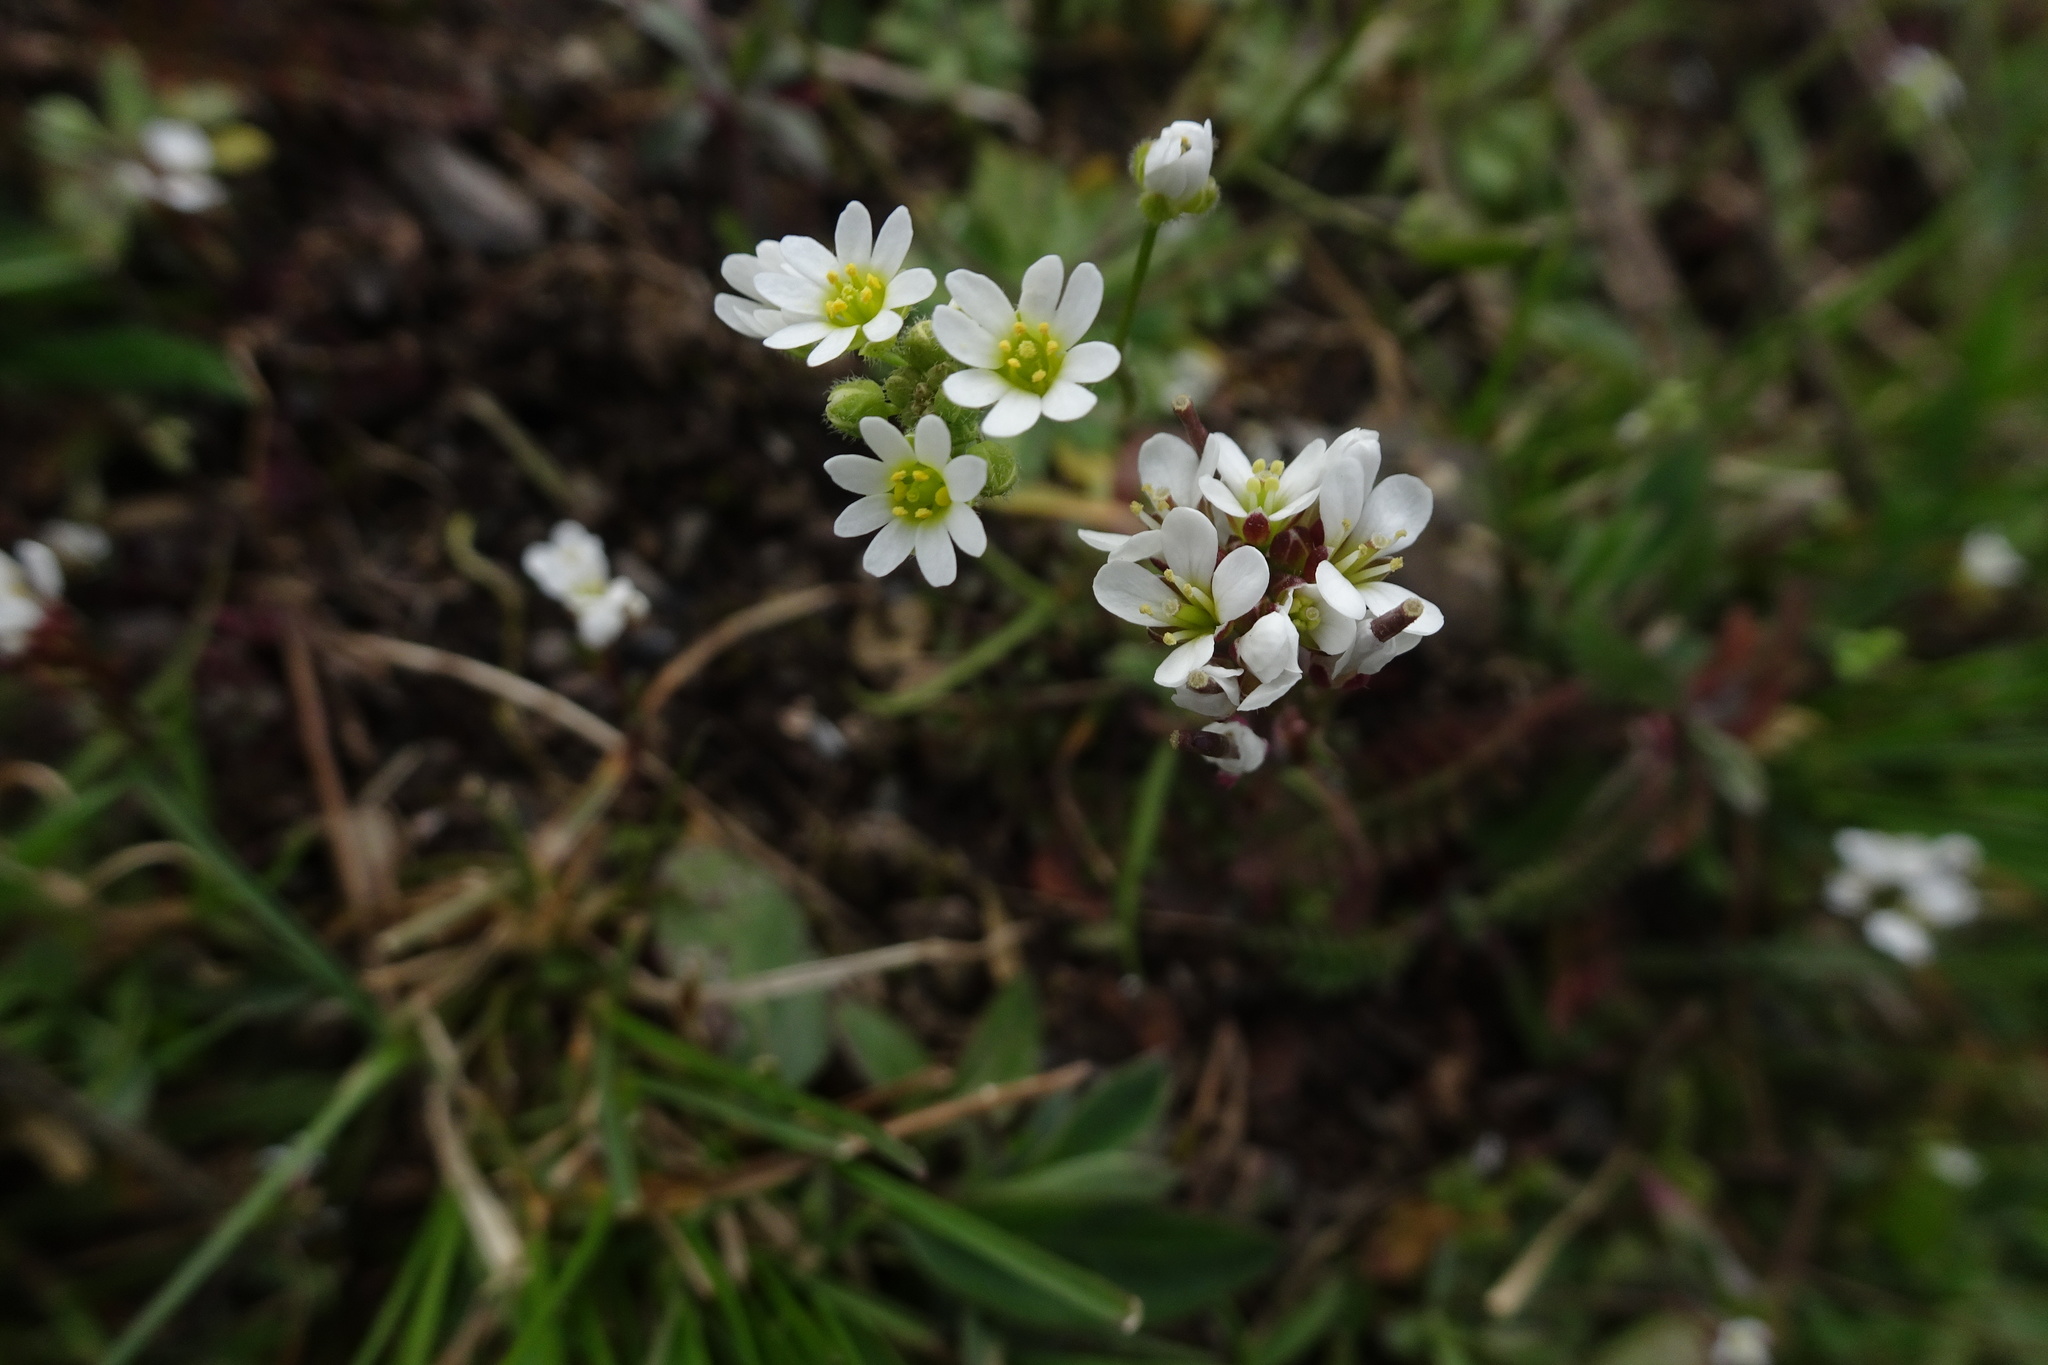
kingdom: Plantae
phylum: Tracheophyta
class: Magnoliopsida
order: Brassicales
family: Brassicaceae
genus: Draba
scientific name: Draba verna
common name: Spring draba
